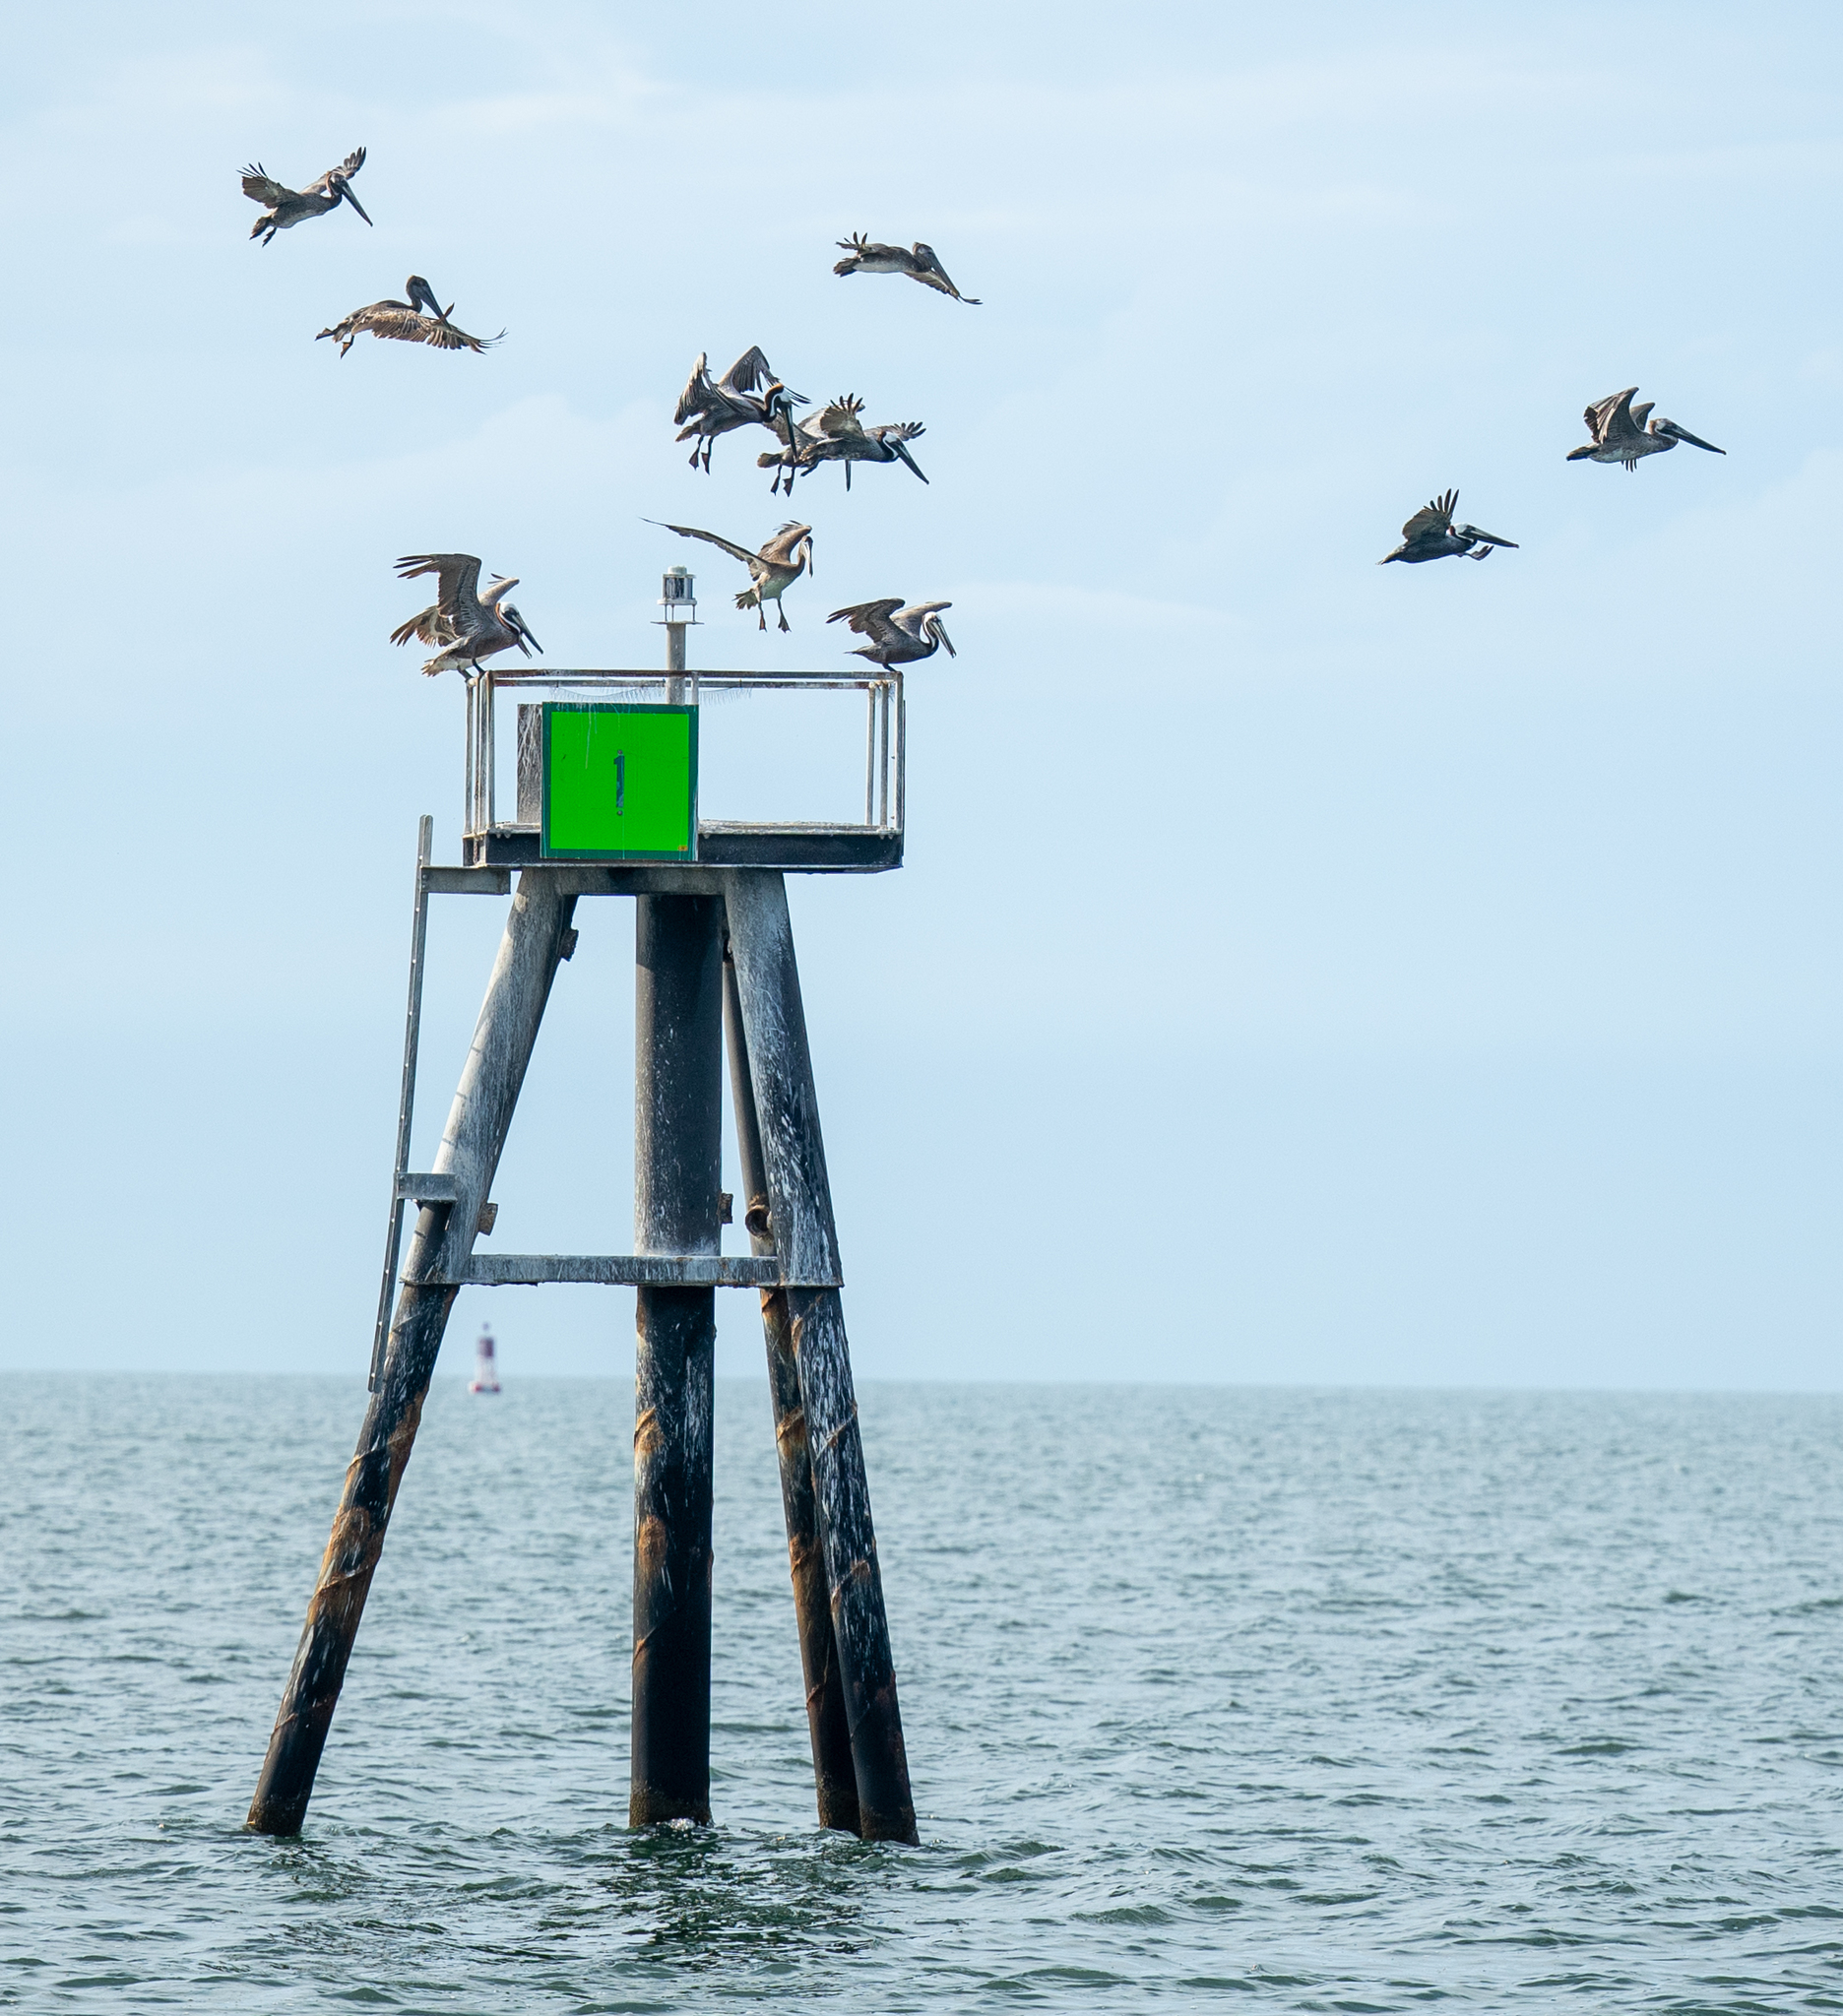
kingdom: Animalia
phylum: Chordata
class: Aves
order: Pelecaniformes
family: Pelecanidae
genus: Pelecanus
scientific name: Pelecanus occidentalis
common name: Brown pelican
